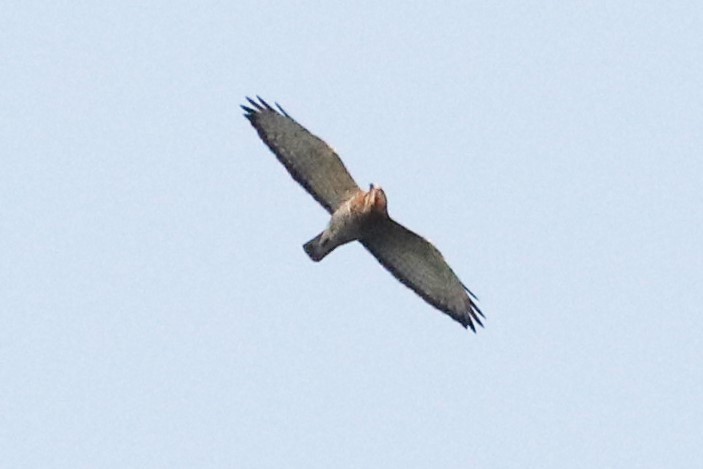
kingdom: Animalia
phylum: Chordata
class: Aves
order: Accipitriformes
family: Accipitridae
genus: Buteo
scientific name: Buteo platypterus
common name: Broad-winged hawk
